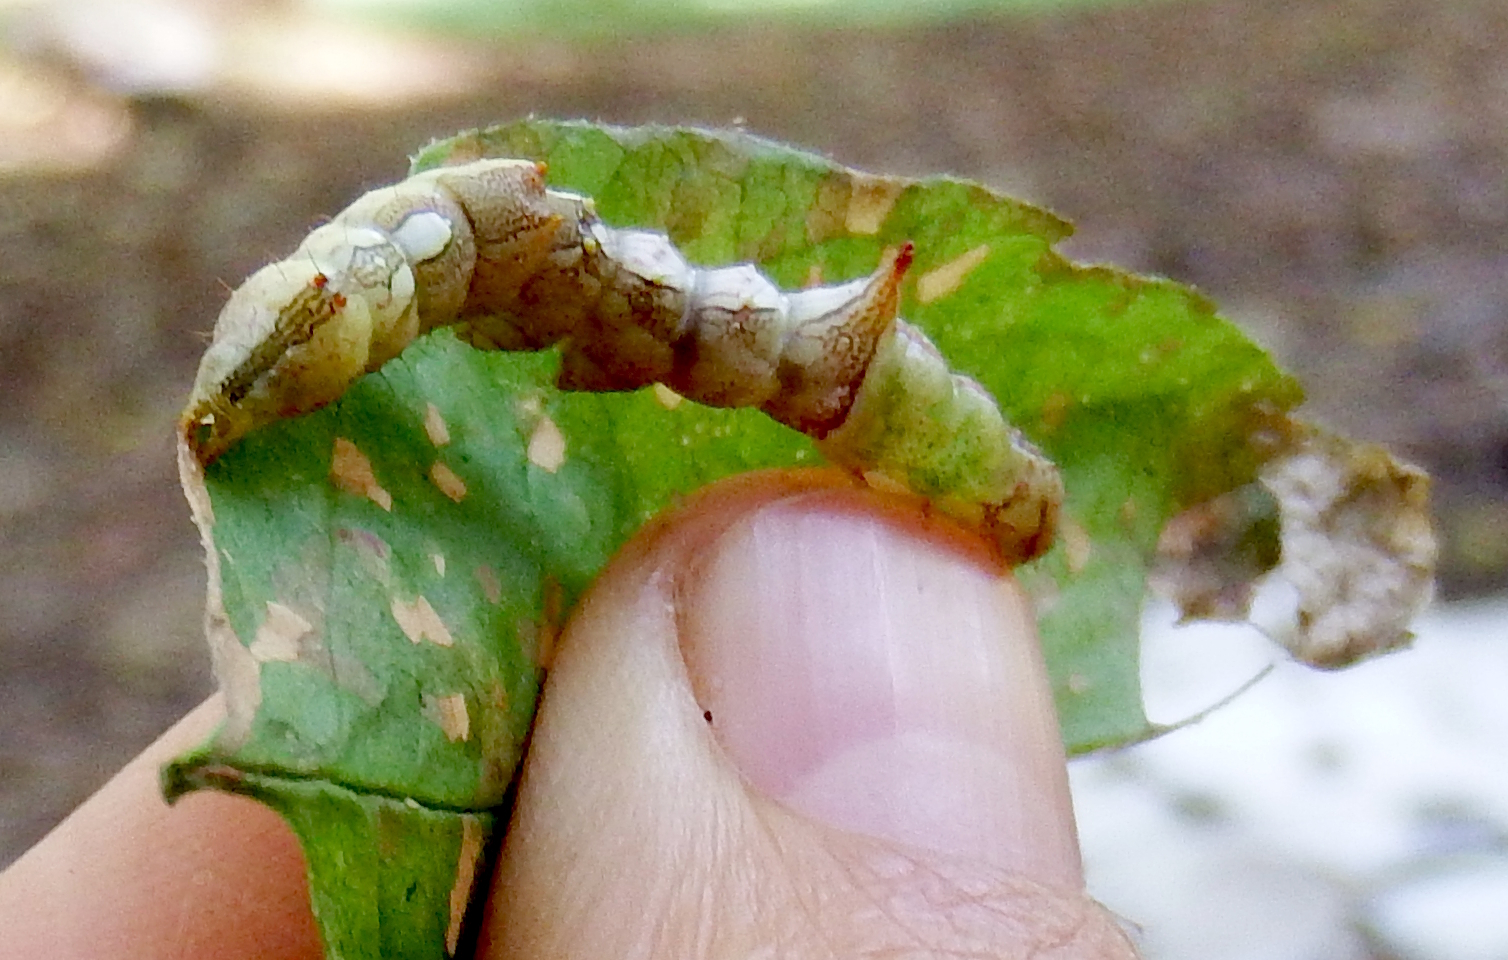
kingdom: Animalia
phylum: Arthropoda
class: Insecta
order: Lepidoptera
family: Notodontidae
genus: Schizura
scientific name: Schizura ipomaeae
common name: Morning-glory prominent
